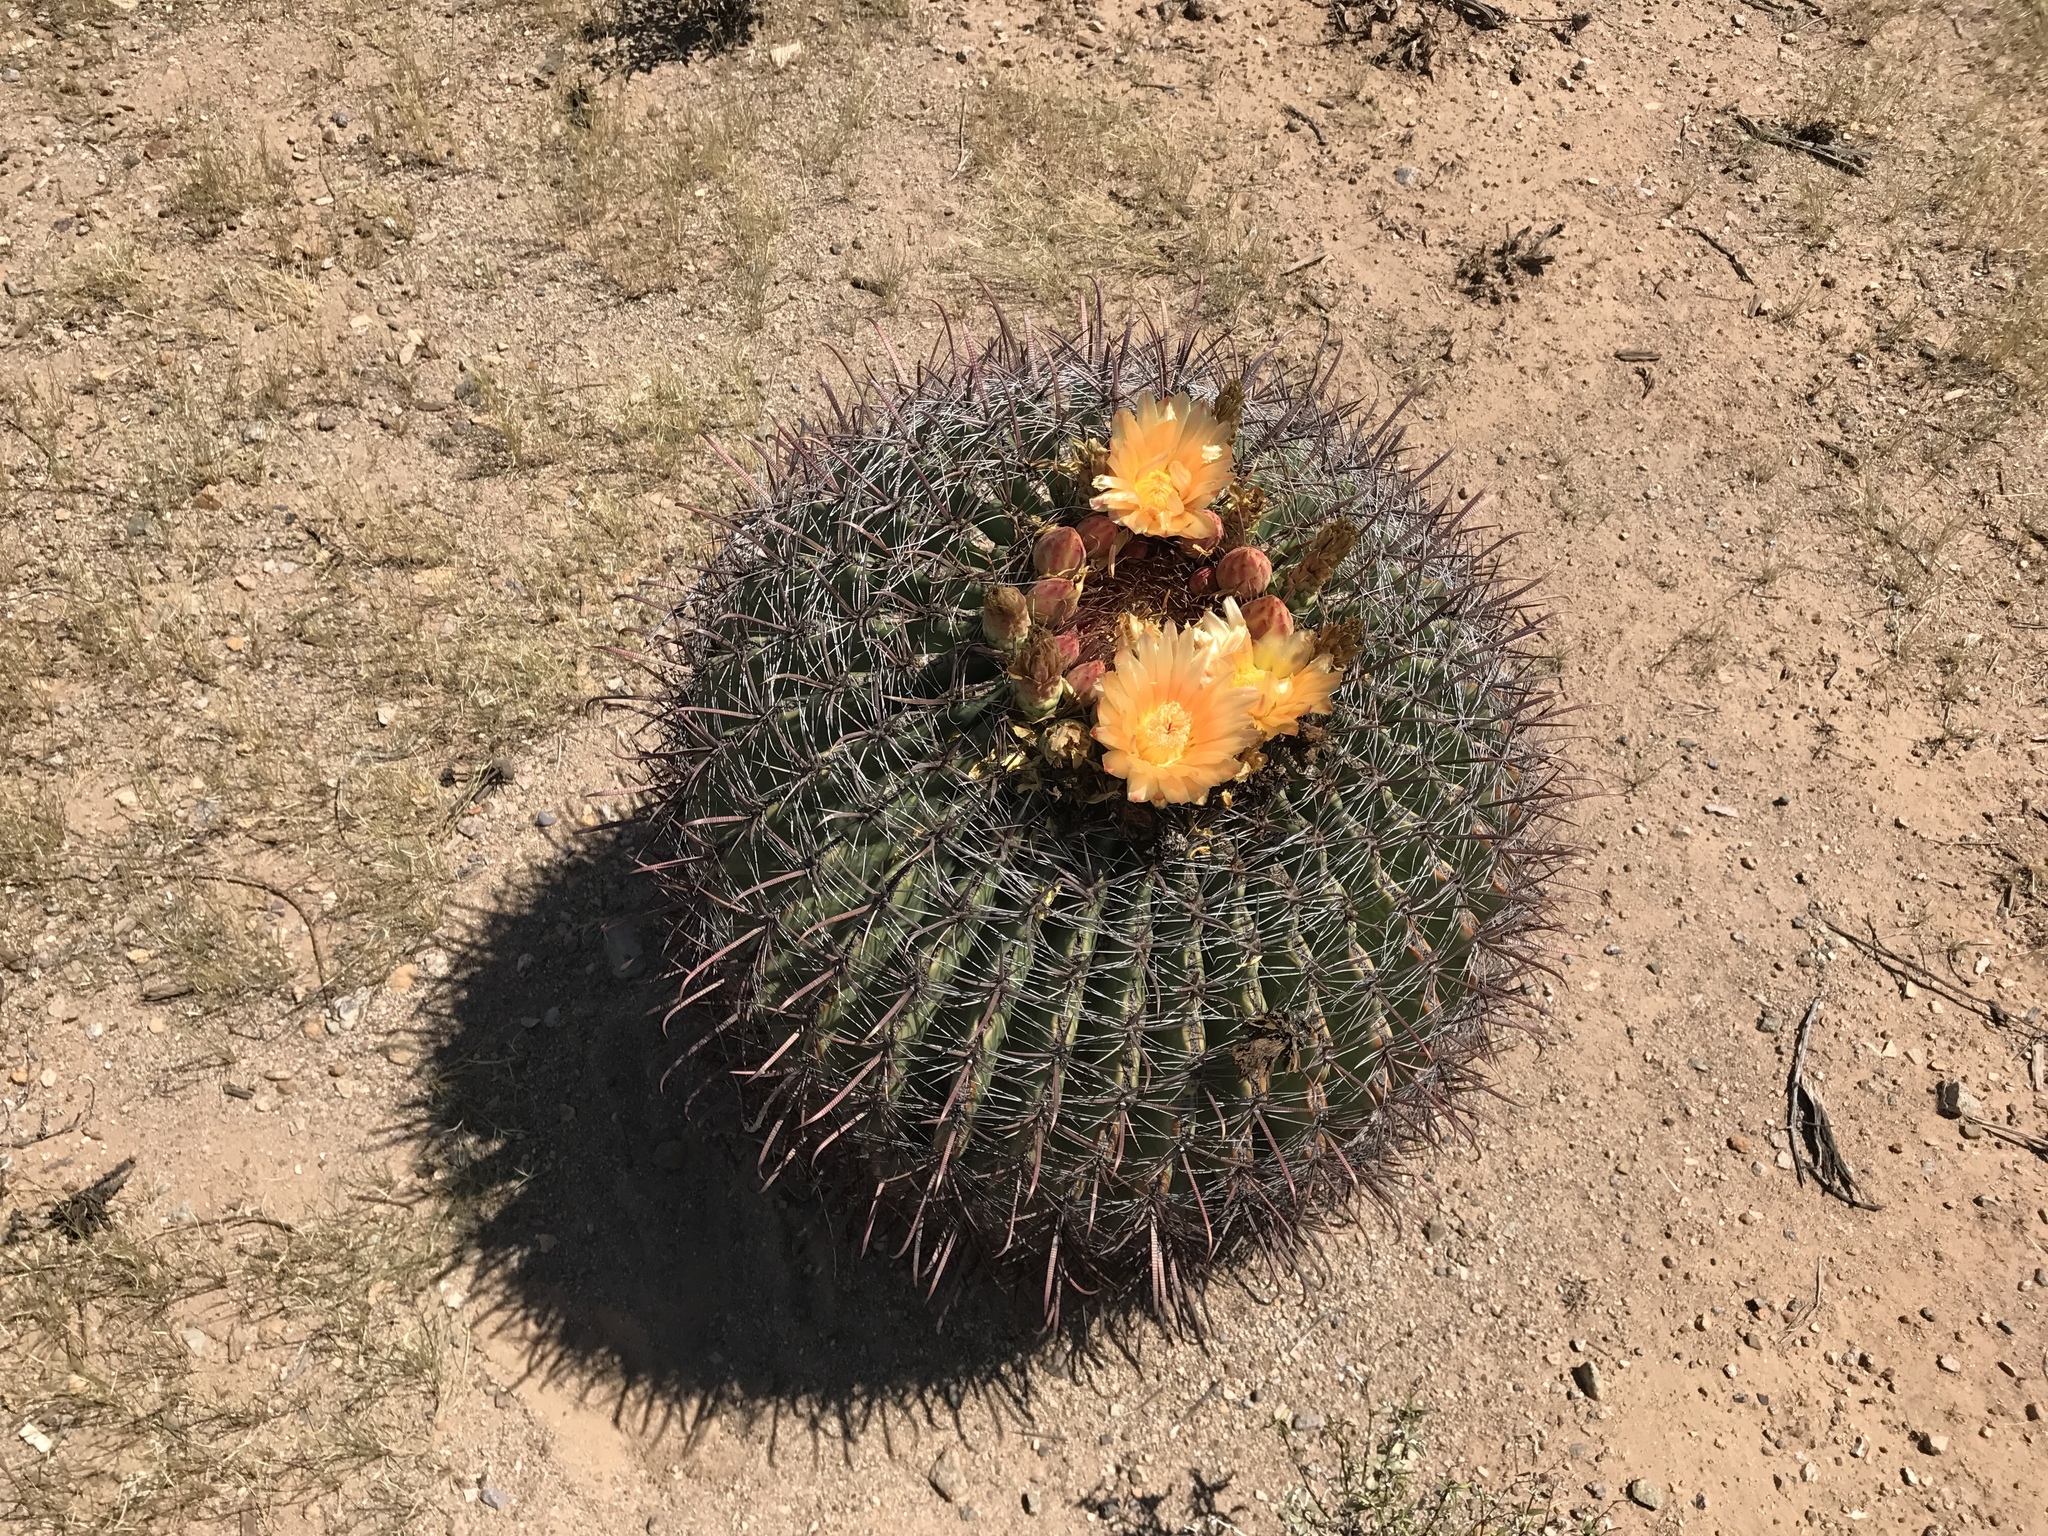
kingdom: Plantae
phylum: Tracheophyta
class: Magnoliopsida
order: Caryophyllales
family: Cactaceae
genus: Ferocactus
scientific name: Ferocactus wislizeni
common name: Candy barrel cactus
